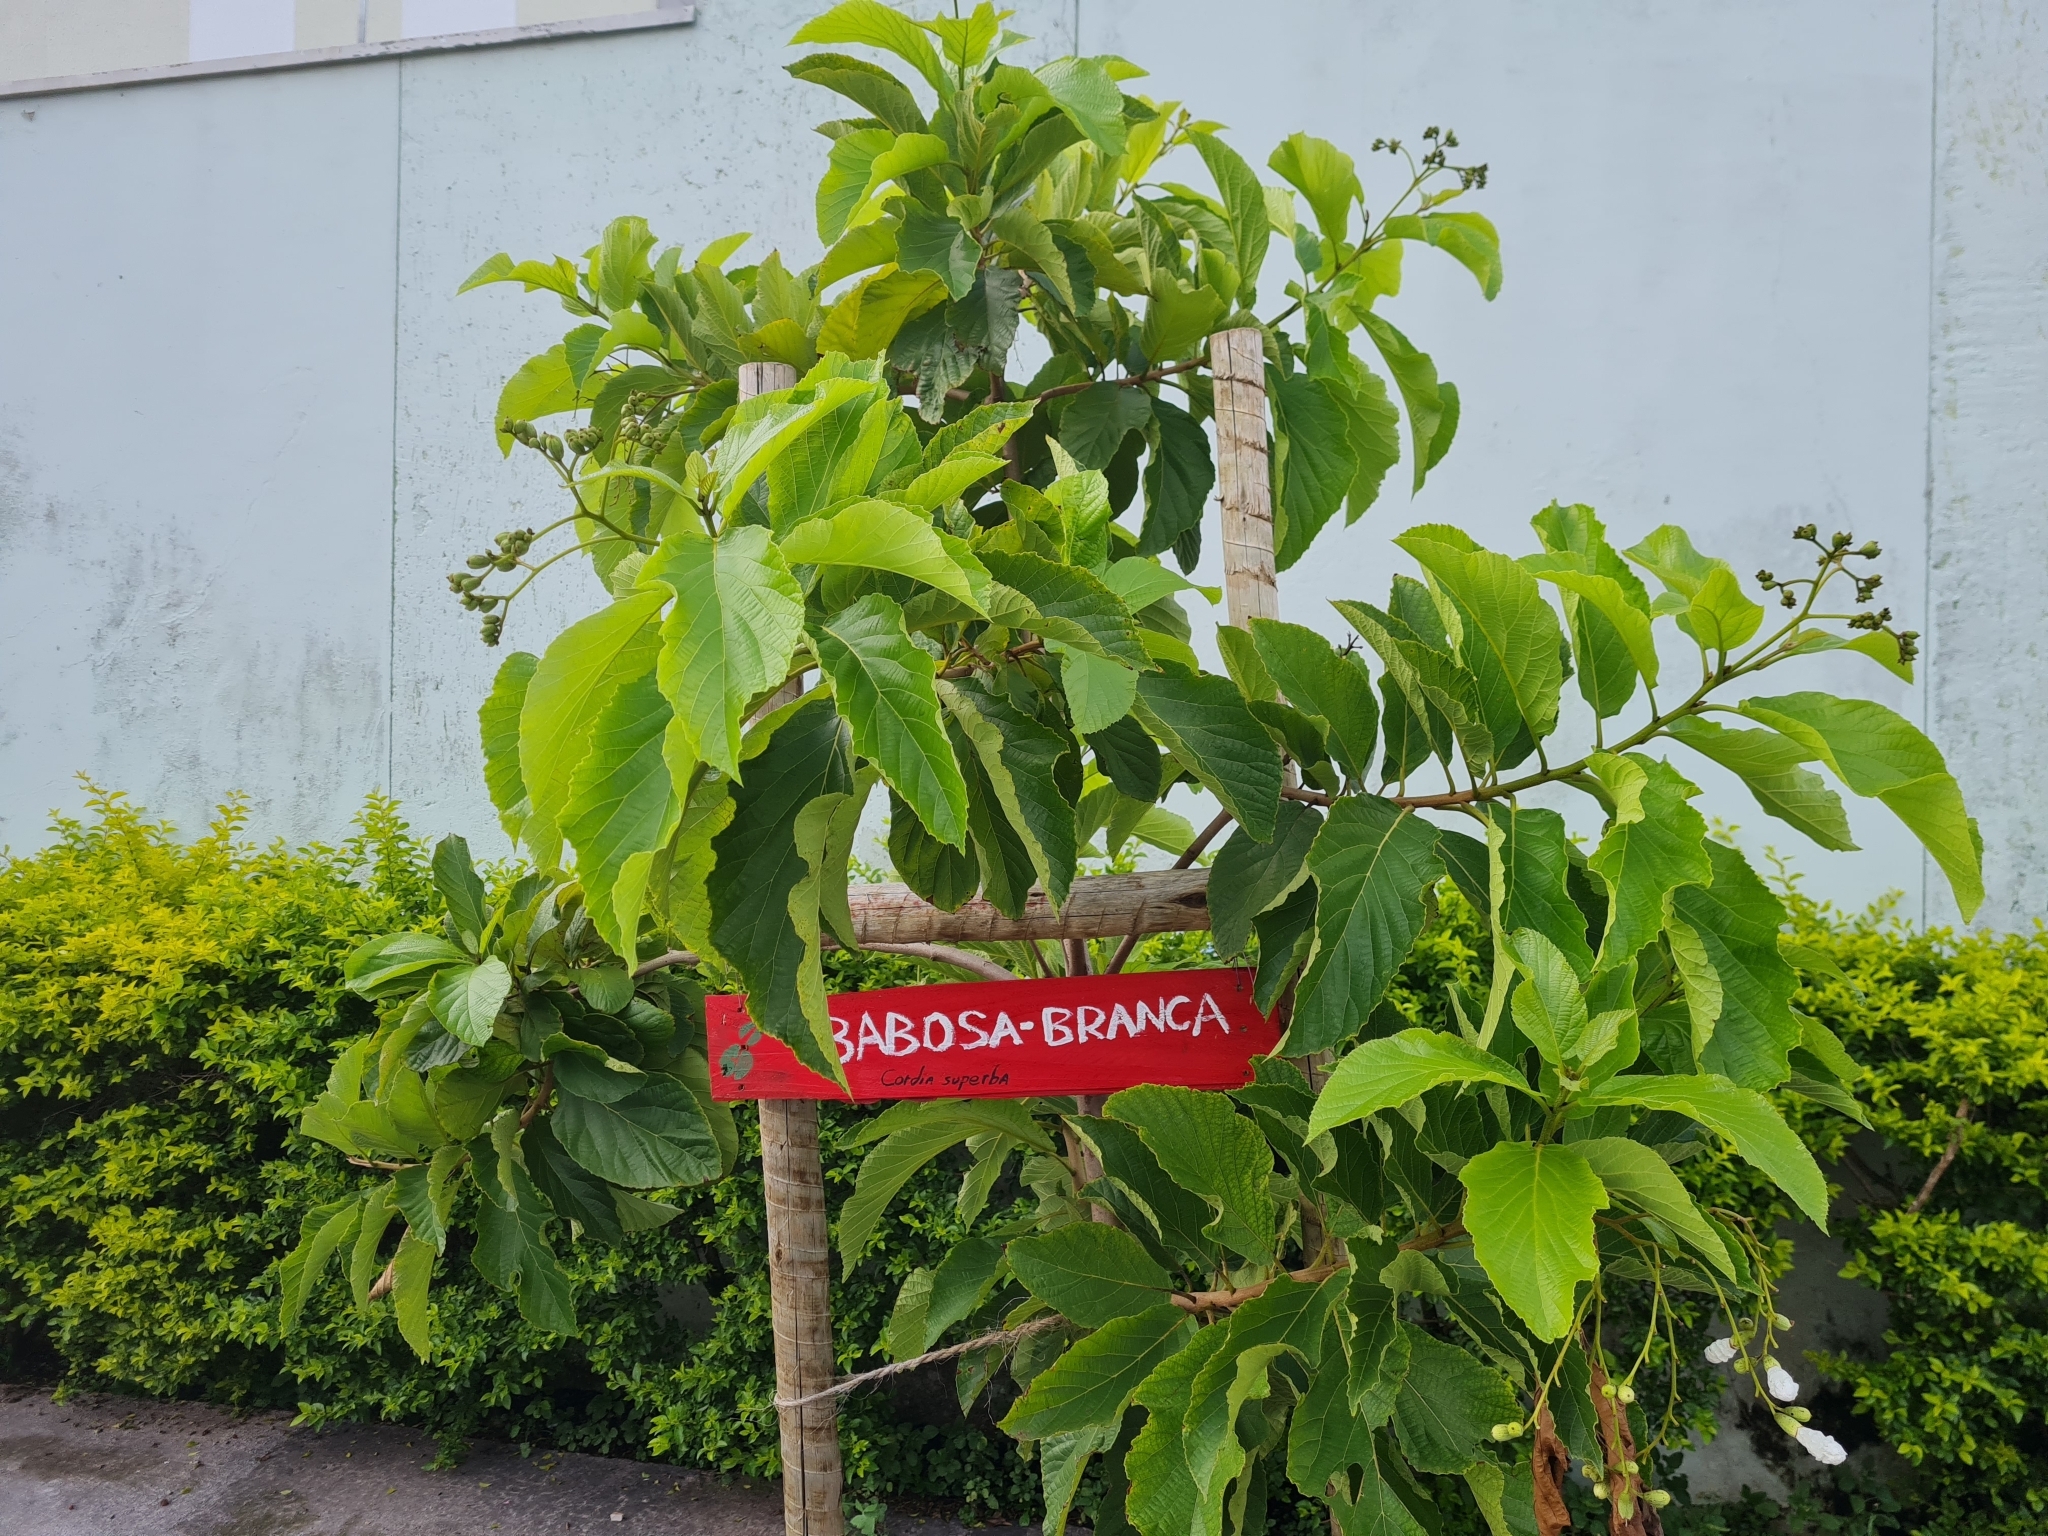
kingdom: Plantae
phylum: Tracheophyta
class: Magnoliopsida
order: Boraginales
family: Cordiaceae
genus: Cordia
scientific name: Cordia superba
